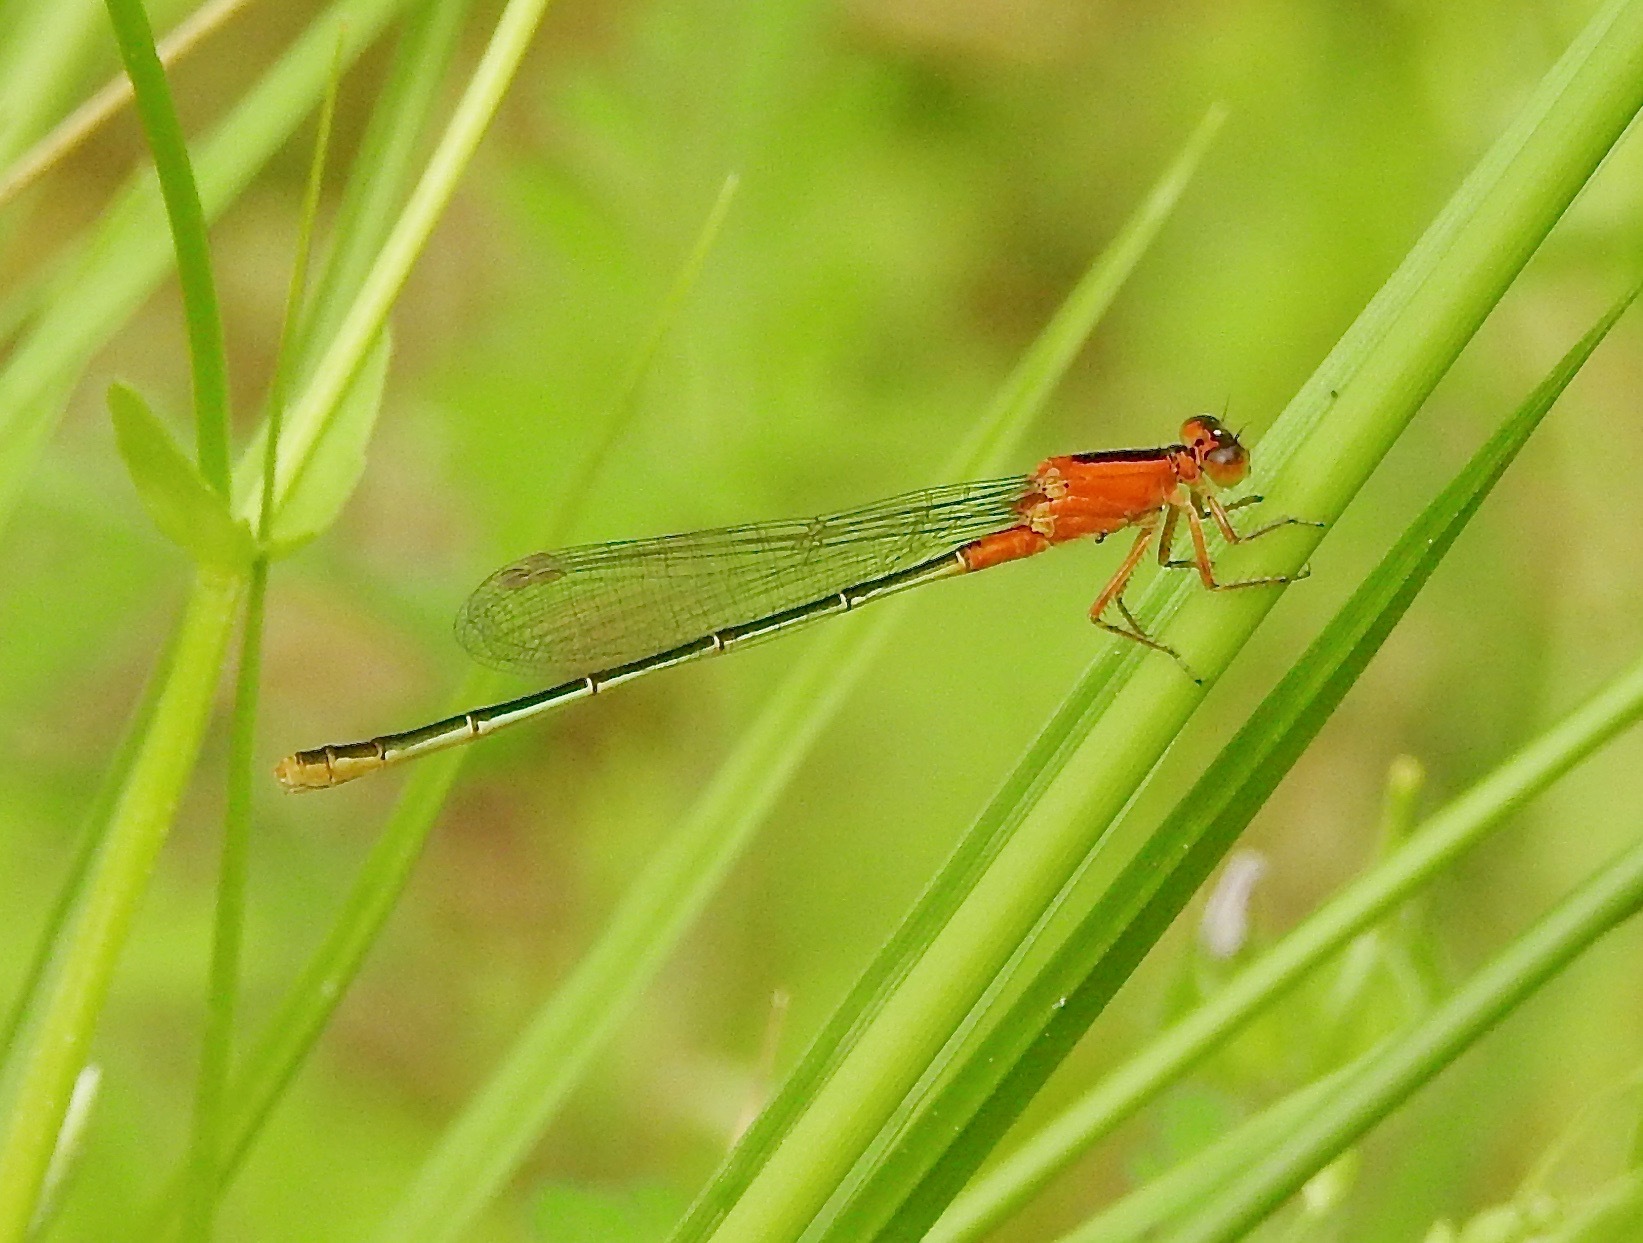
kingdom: Animalia
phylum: Arthropoda
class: Insecta
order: Odonata
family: Coenagrionidae
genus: Ischnura
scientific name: Ischnura ramburii
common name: Rambur's forktail
